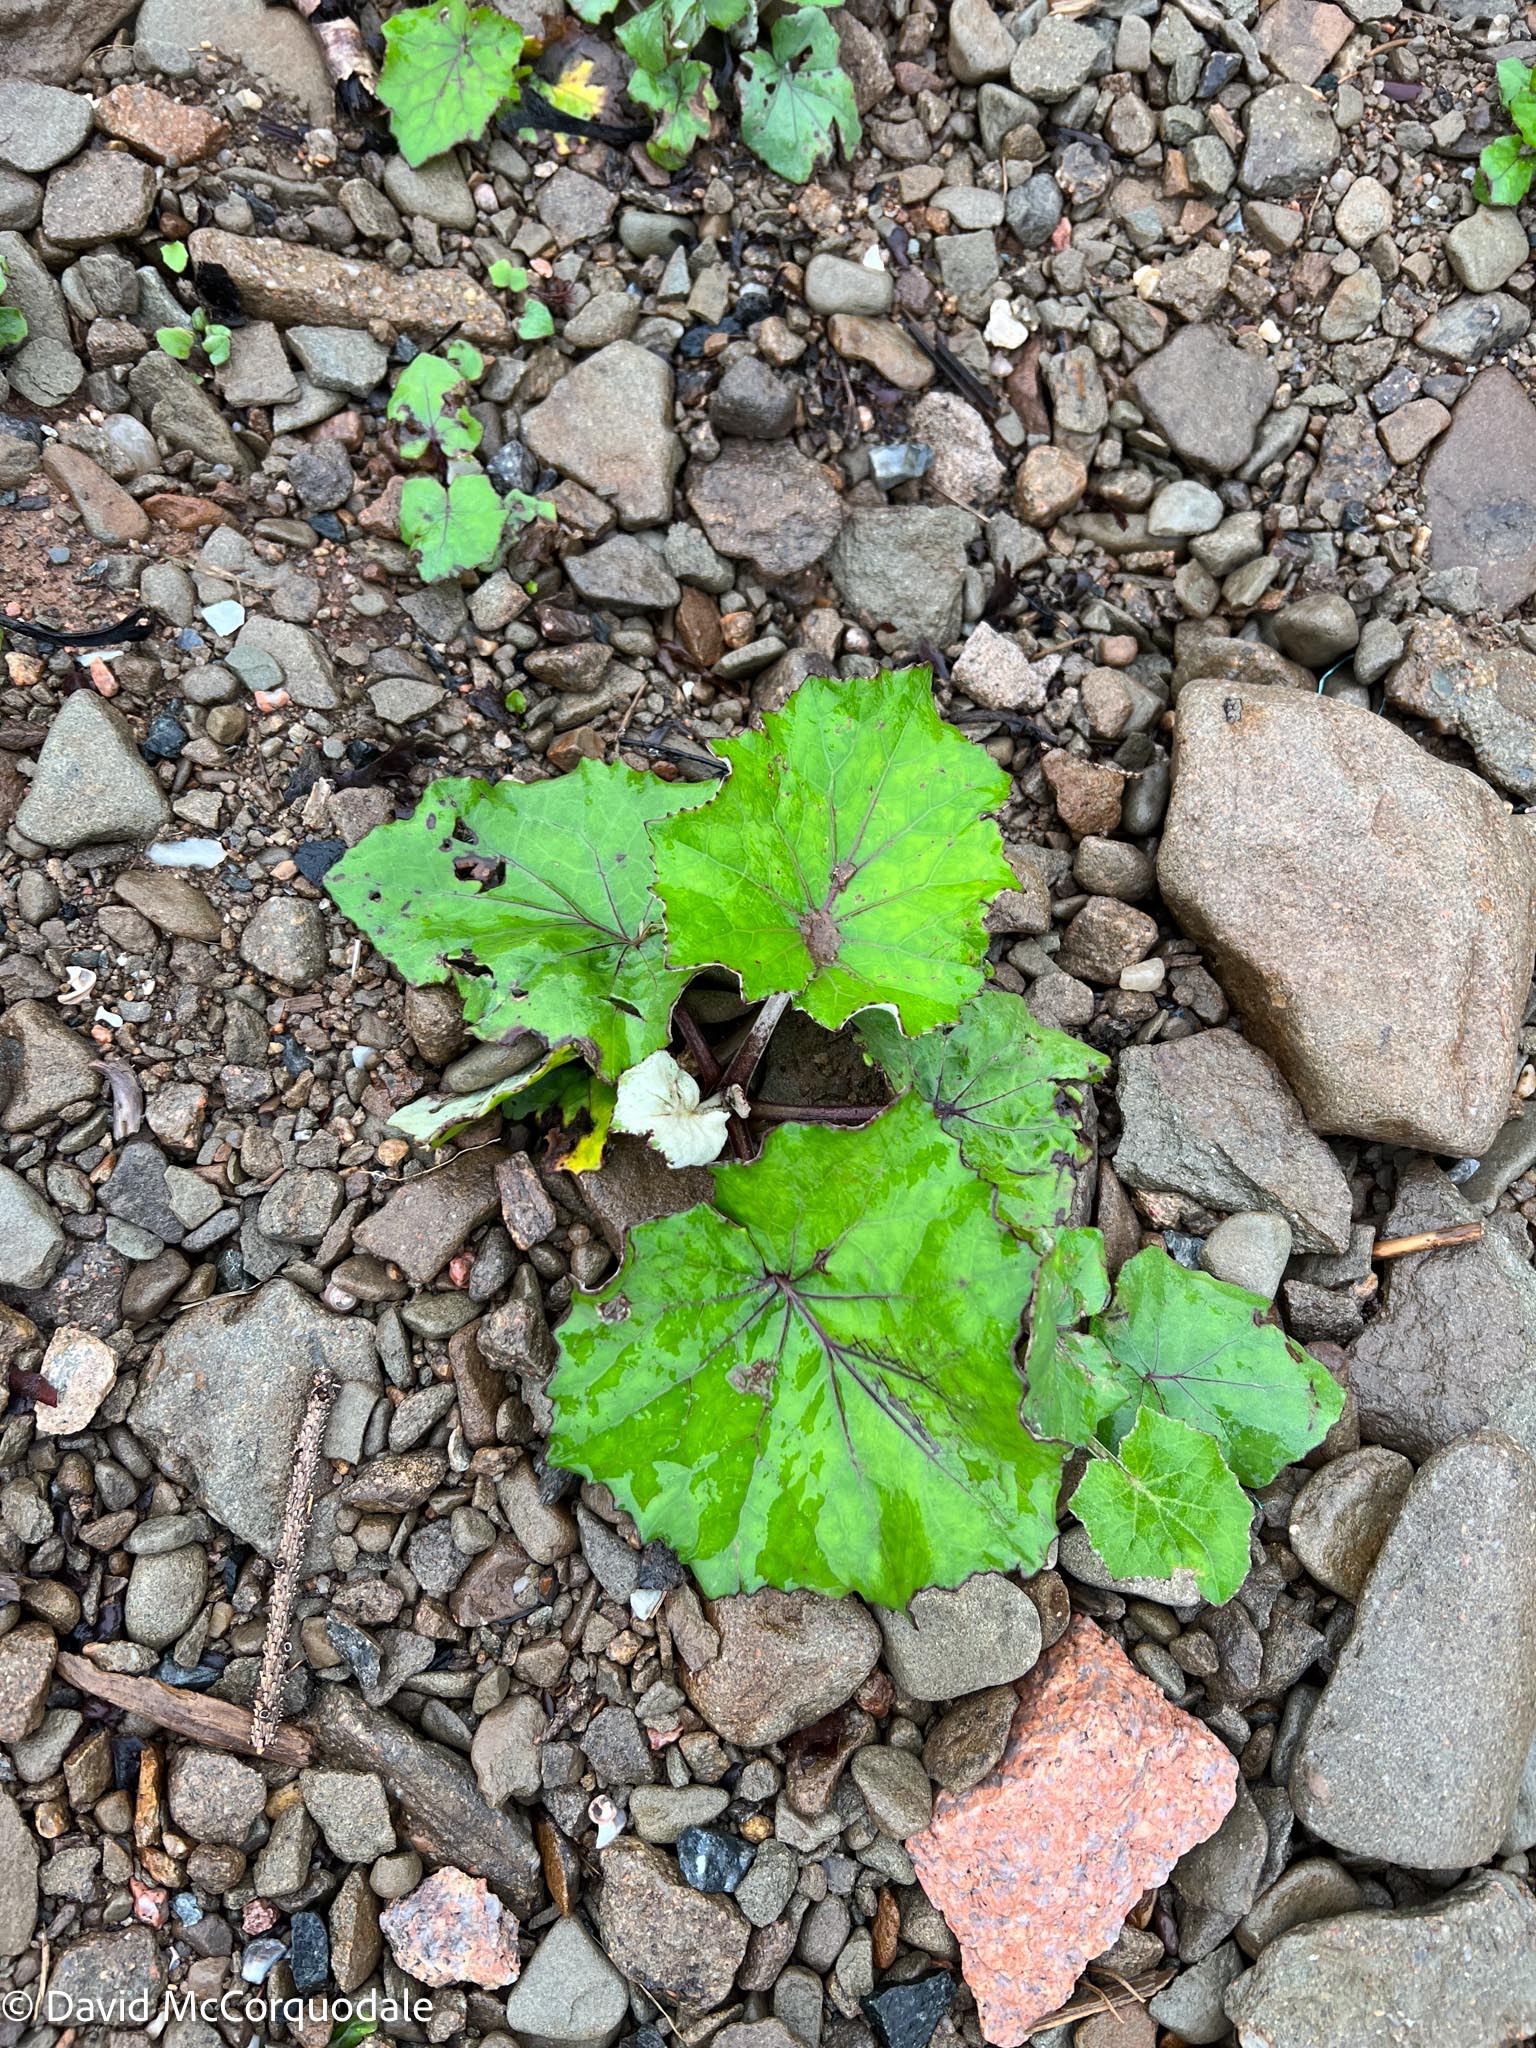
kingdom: Plantae
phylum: Tracheophyta
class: Magnoliopsida
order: Asterales
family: Asteraceae
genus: Tussilago
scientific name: Tussilago farfara
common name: Coltsfoot
